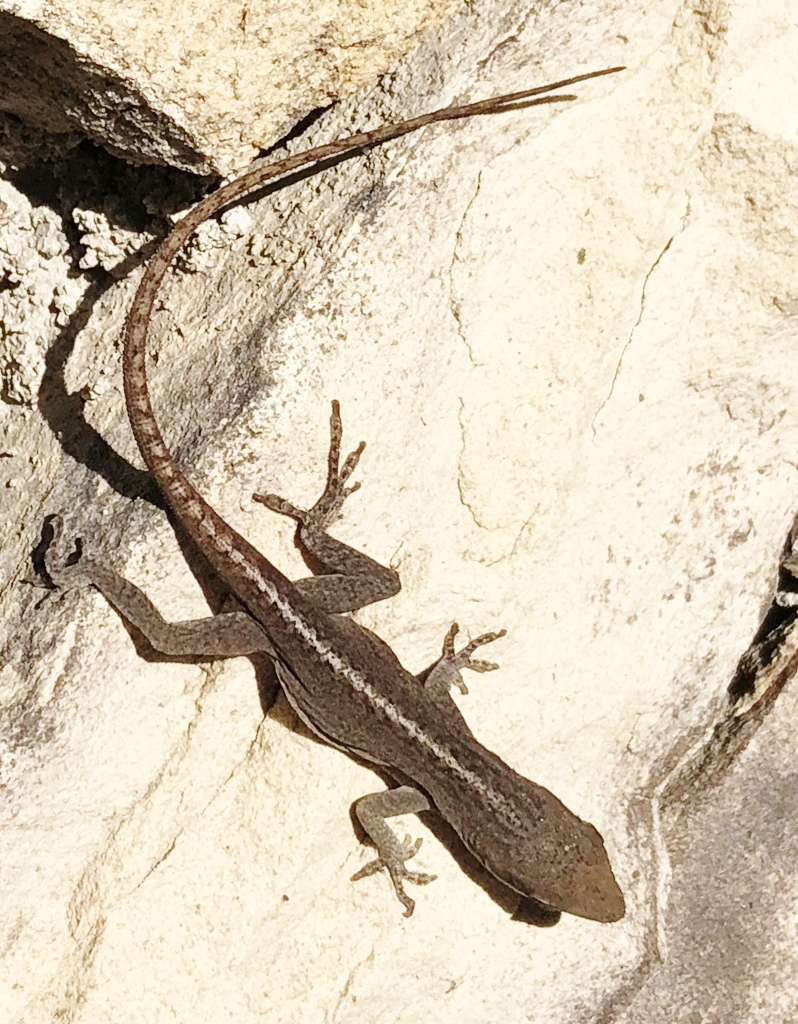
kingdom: Animalia
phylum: Chordata
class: Squamata
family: Dactyloidae
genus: Anolis
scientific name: Anolis carolinensis
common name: Green anole
